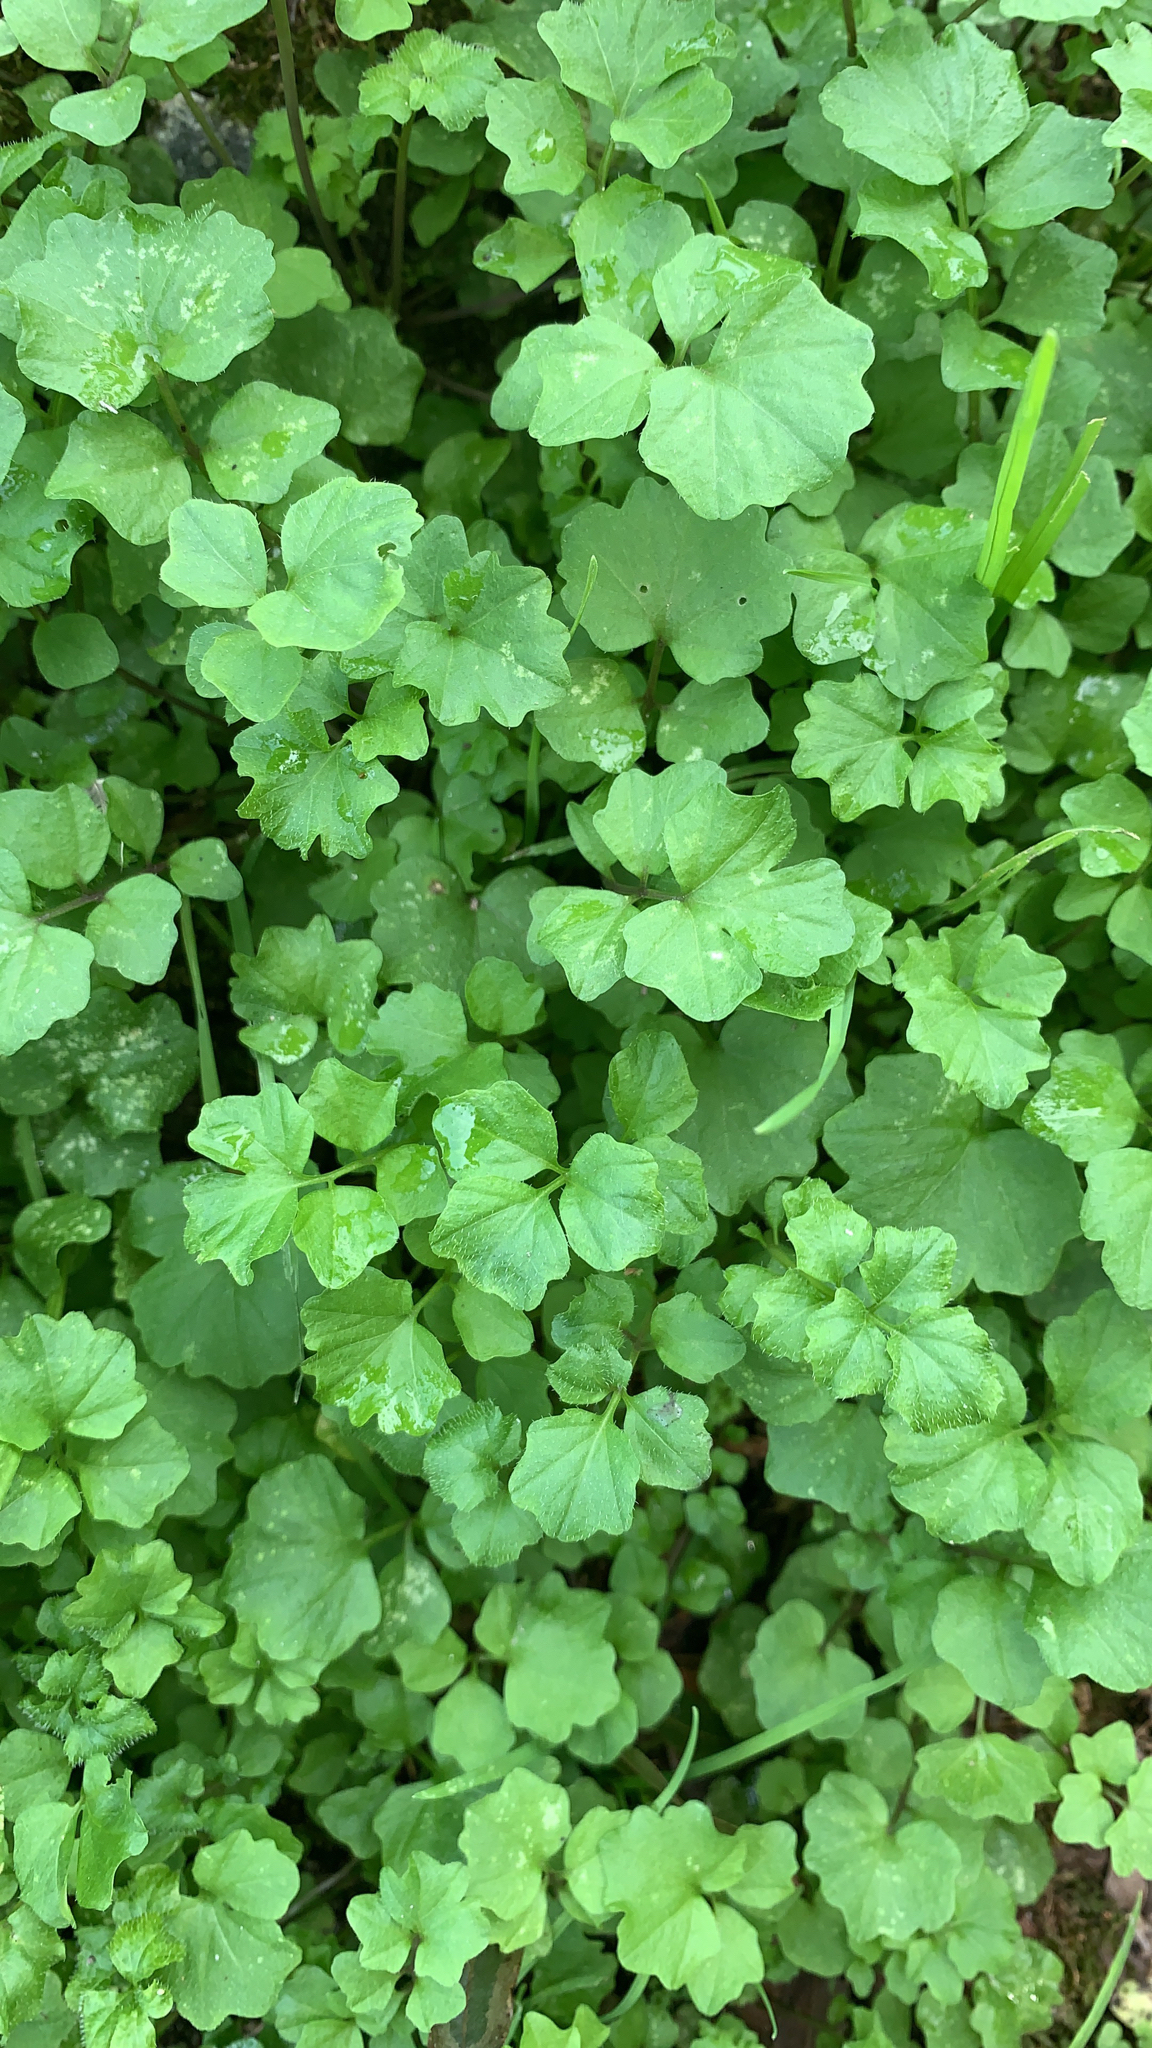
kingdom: Plantae
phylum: Tracheophyta
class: Magnoliopsida
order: Brassicales
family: Brassicaceae
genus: Cardamine
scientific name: Cardamine hirsuta
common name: Hairy bittercress
